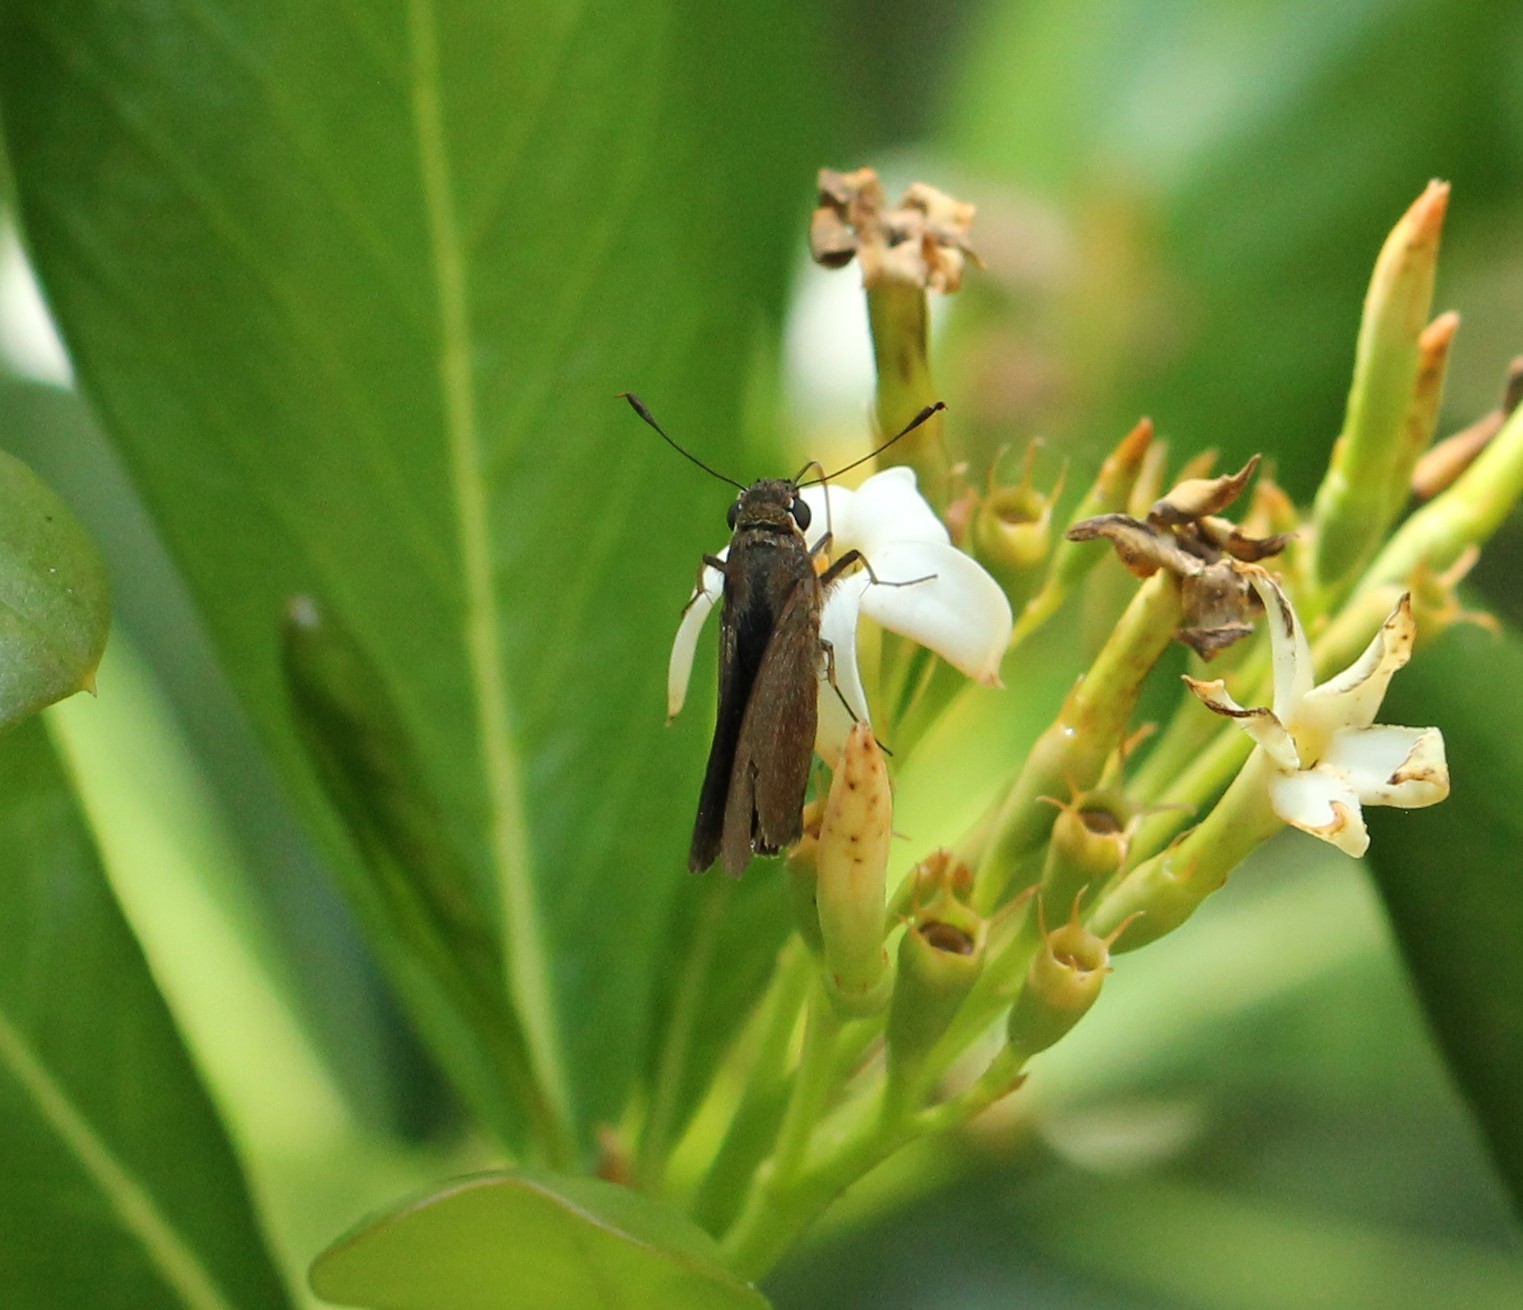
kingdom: Animalia
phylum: Arthropoda
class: Insecta
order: Lepidoptera
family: Hesperiidae
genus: Asbolis
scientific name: Asbolis capucinus
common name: Monk skipper
